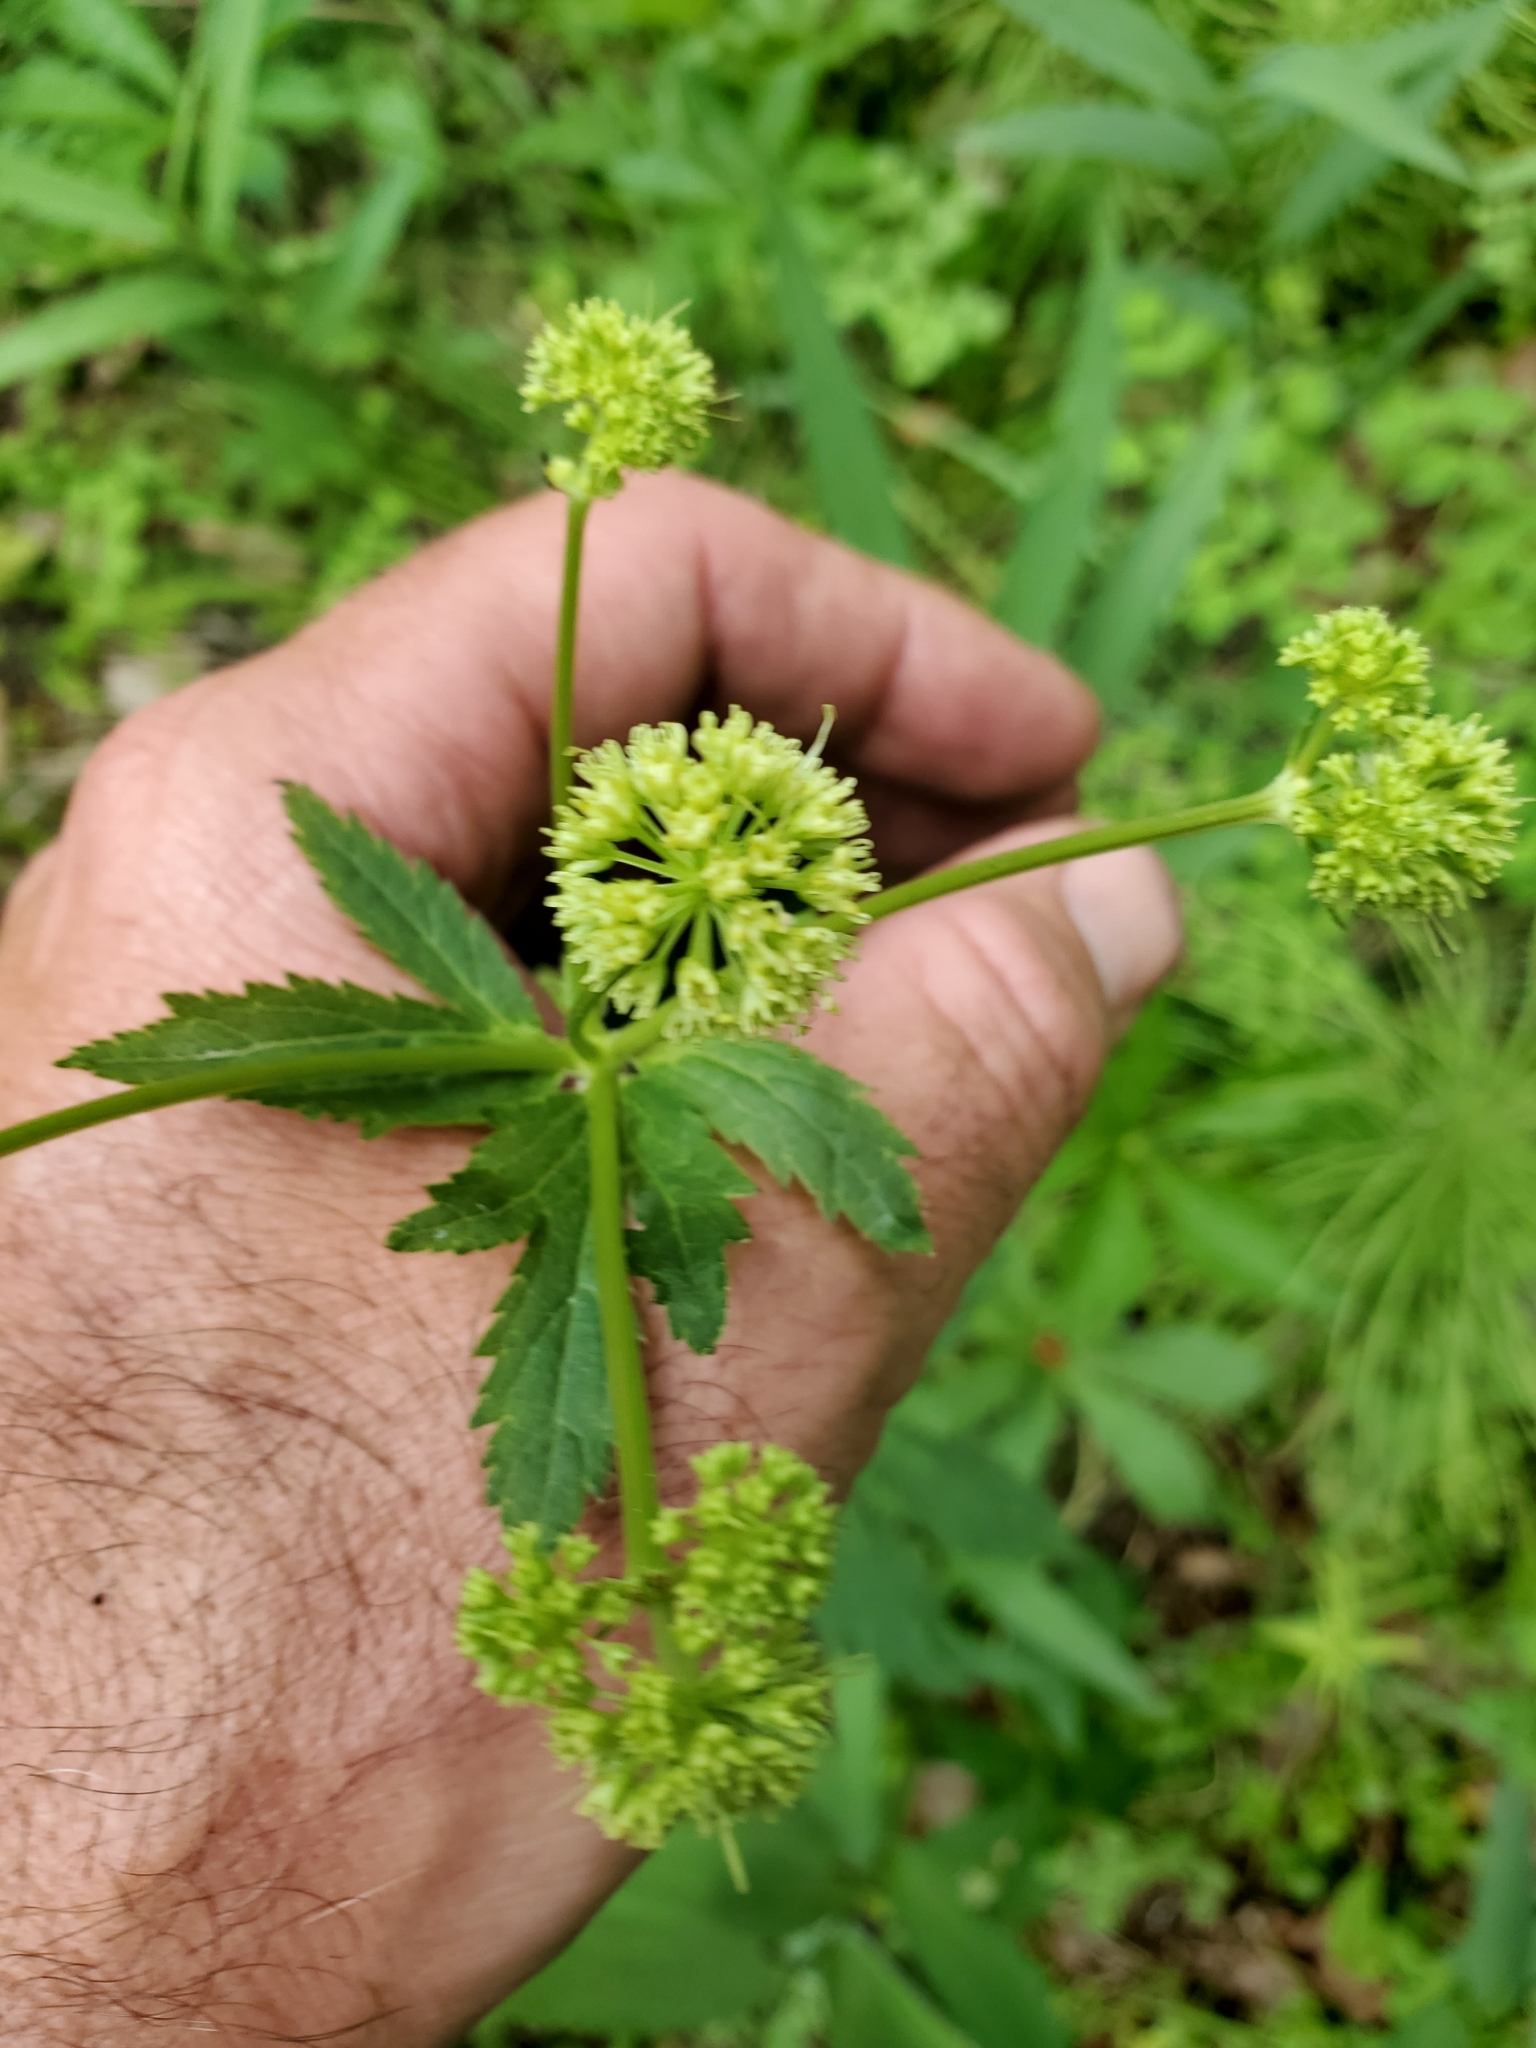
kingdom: Plantae
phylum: Tracheophyta
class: Magnoliopsida
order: Apiales
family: Apiaceae
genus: Sanicula
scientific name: Sanicula marilandica
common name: Black snakeroot
